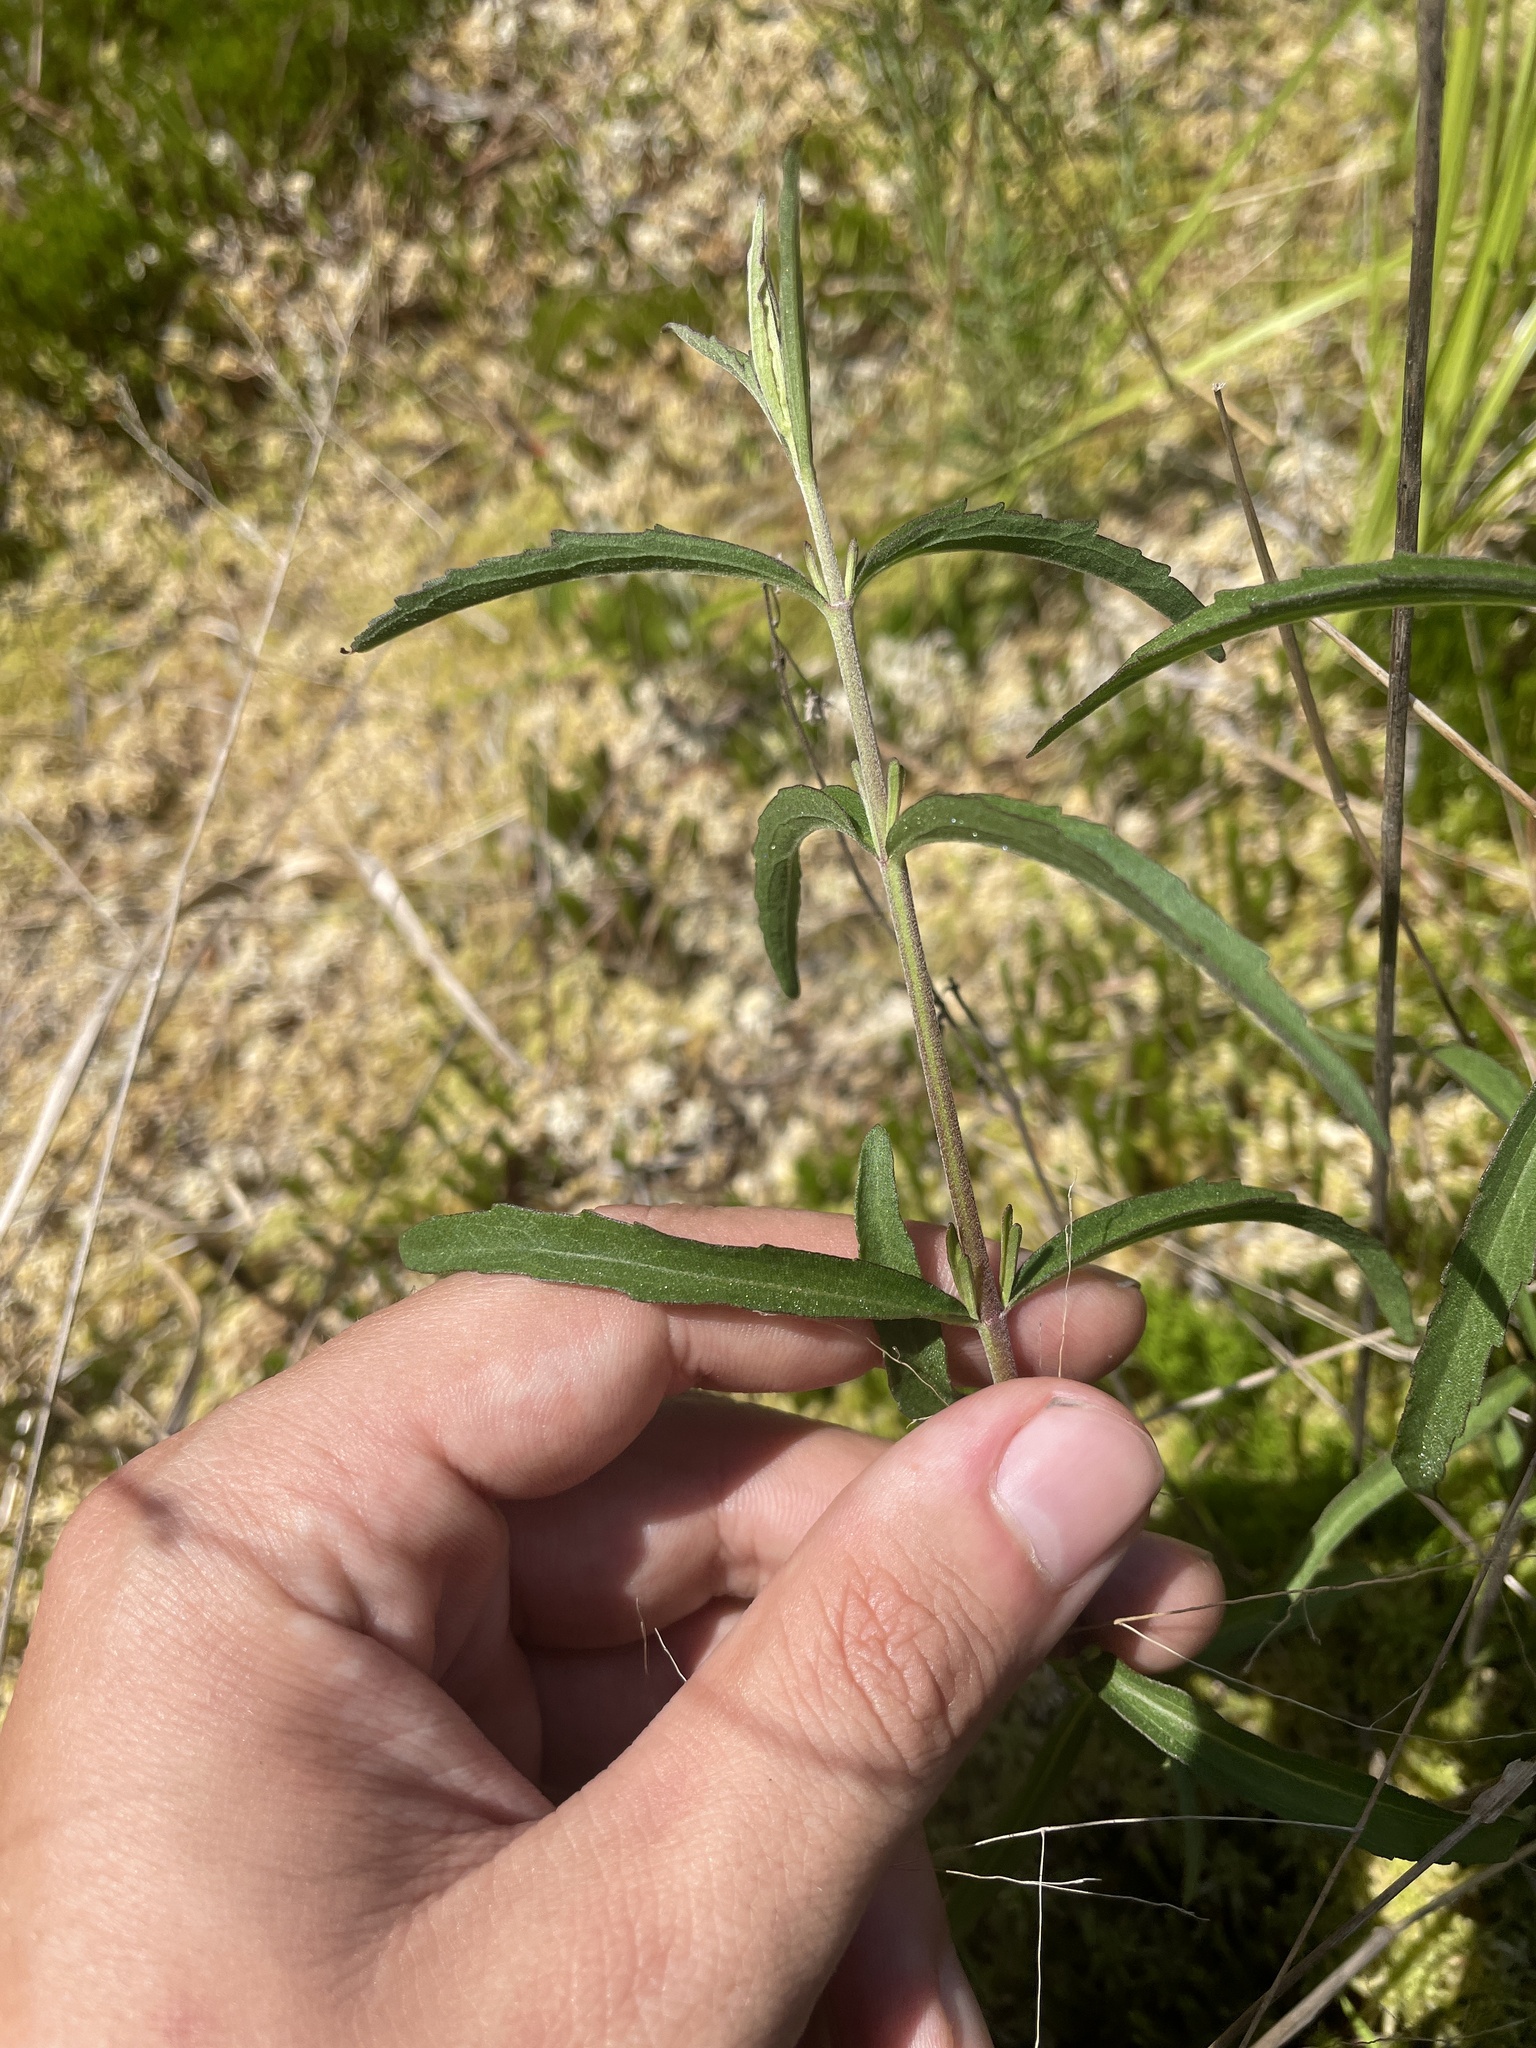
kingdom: Plantae
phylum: Tracheophyta
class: Magnoliopsida
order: Asterales
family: Asteraceae
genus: Eupatorium
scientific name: Eupatorium leucolepis
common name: Justiceweed
